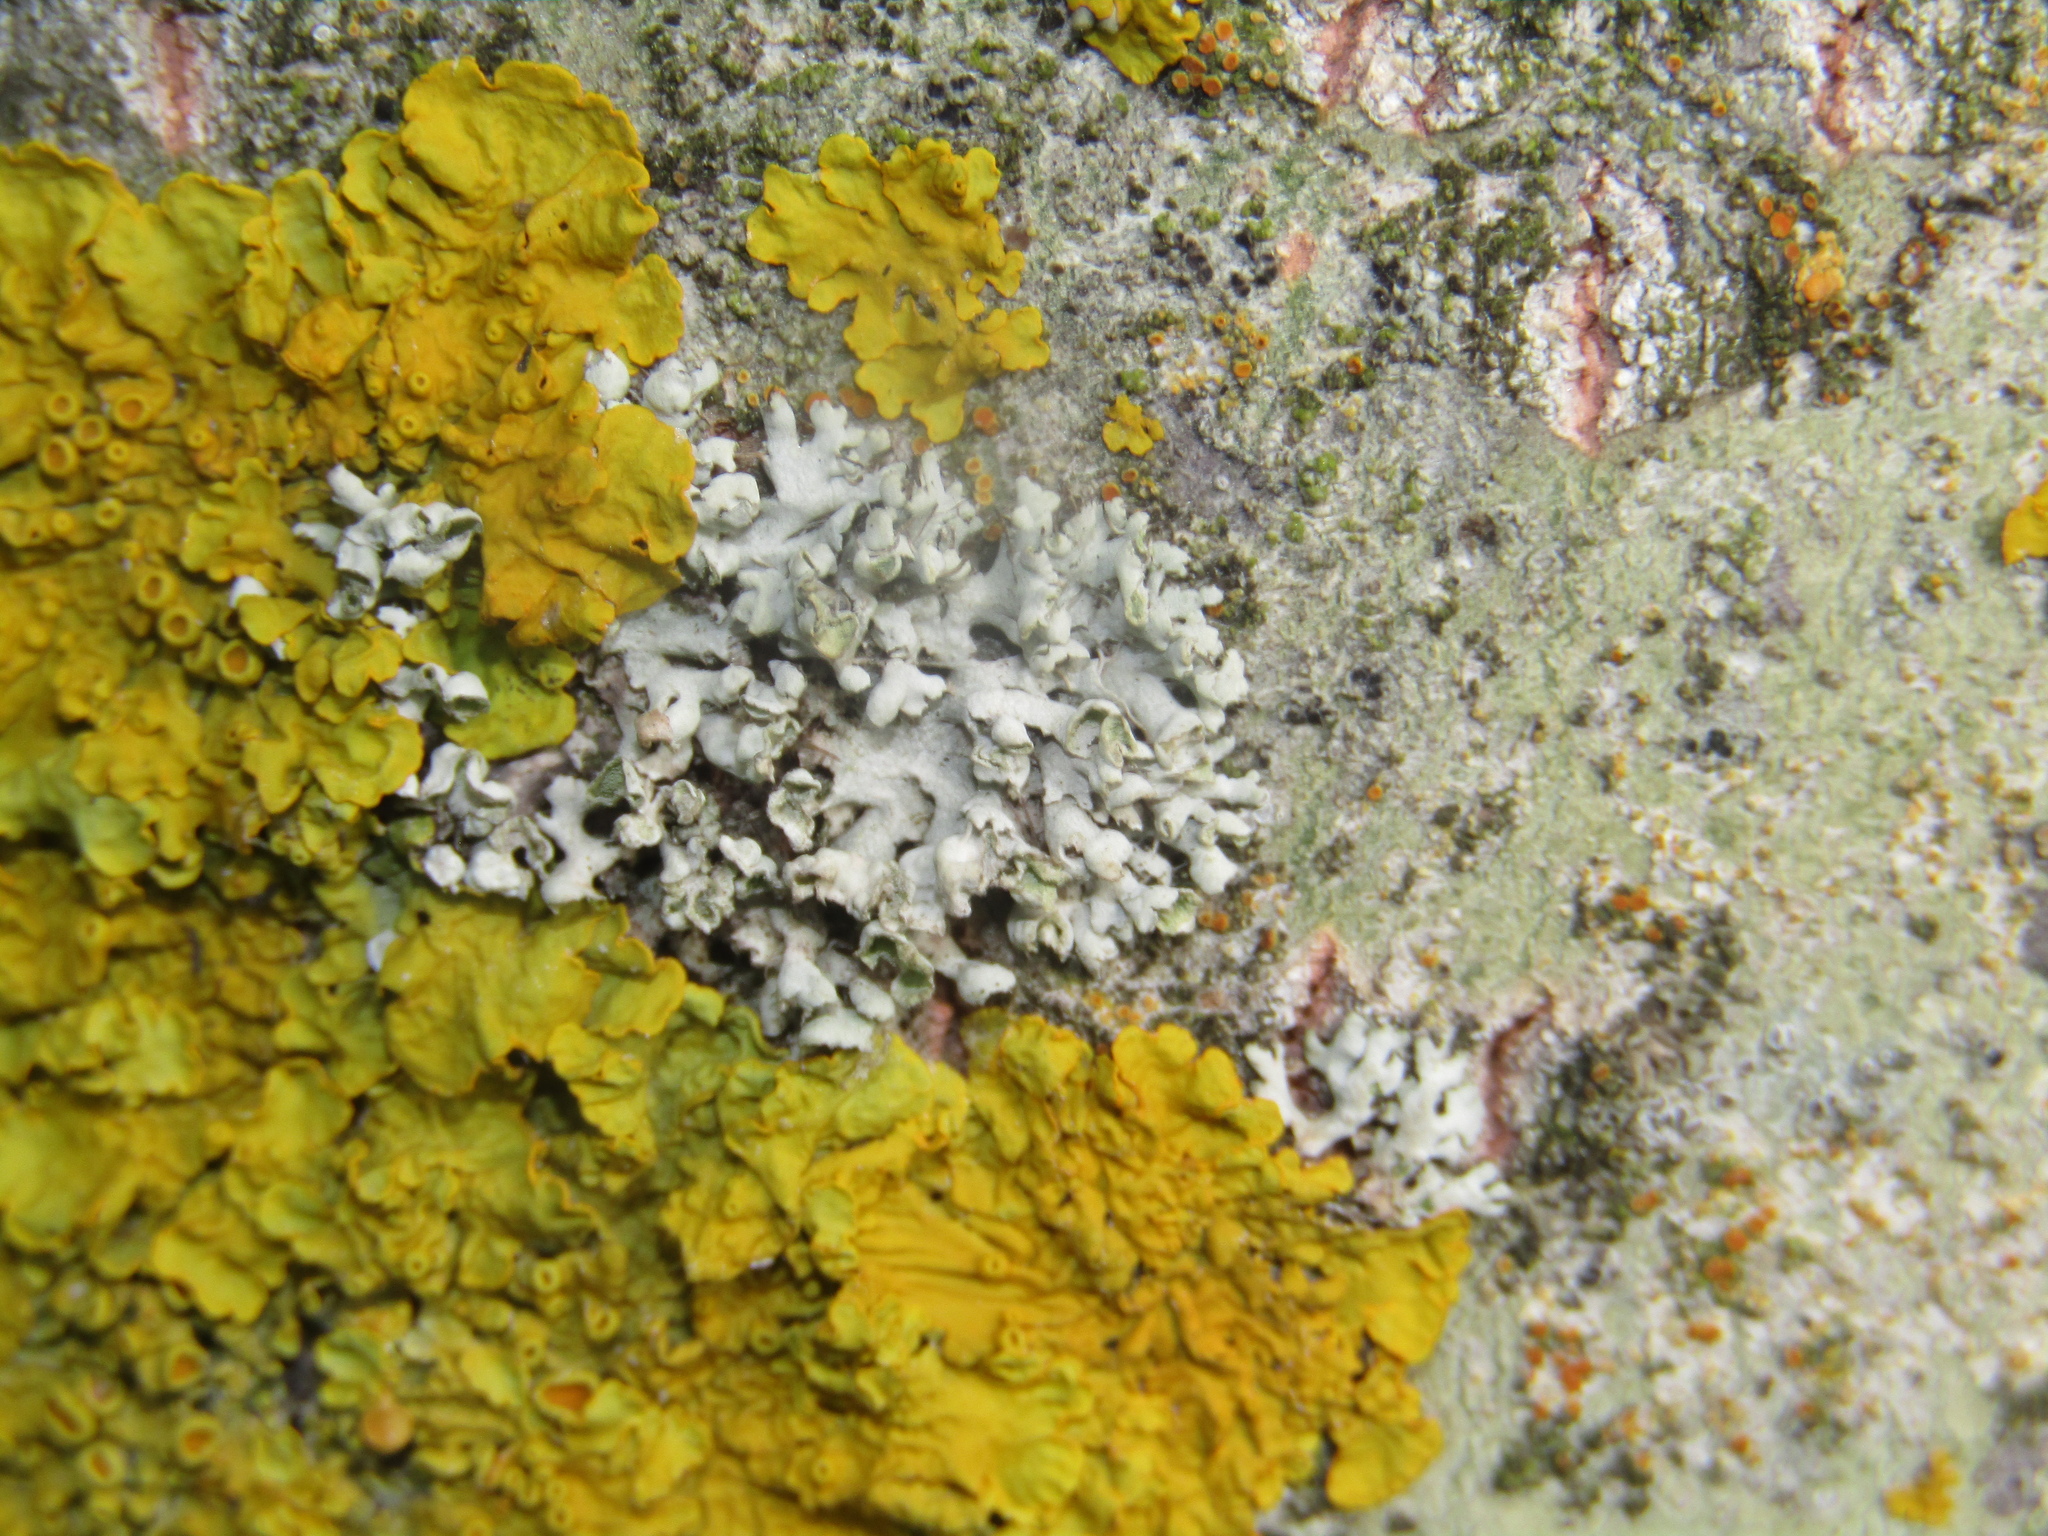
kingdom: Fungi
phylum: Ascomycota
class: Lecanoromycetes
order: Caliciales
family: Physciaceae
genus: Physcia
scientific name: Physcia adscendens
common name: Hooded rosette lichen
